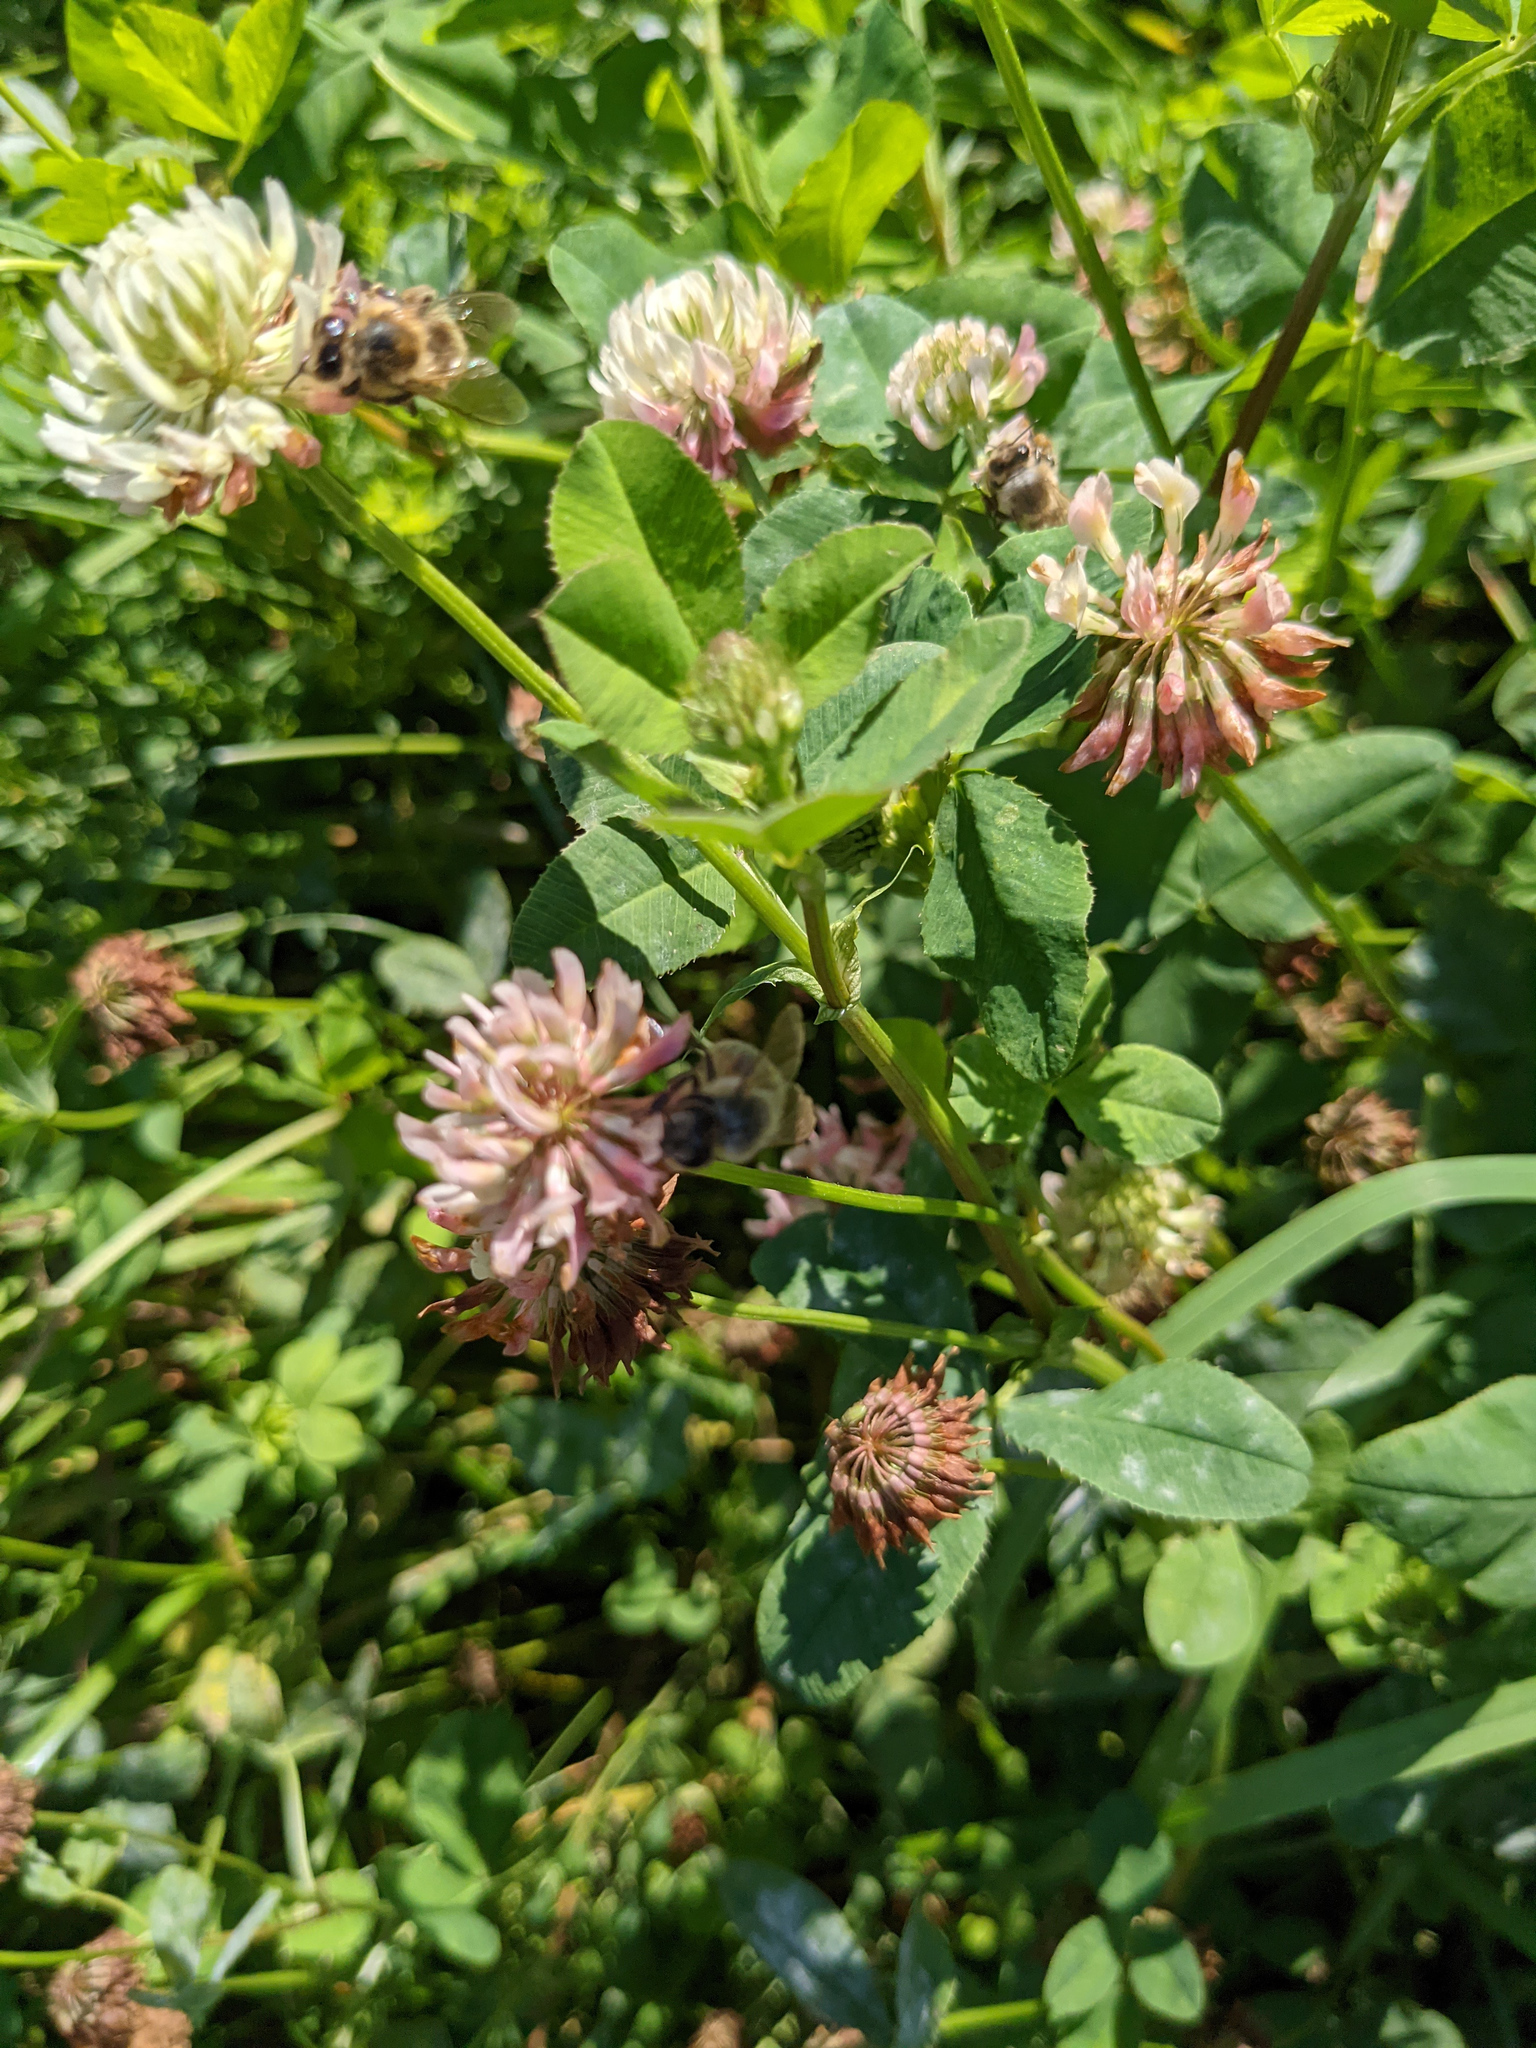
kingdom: Animalia
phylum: Arthropoda
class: Insecta
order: Hymenoptera
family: Apidae
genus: Apis
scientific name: Apis mellifera
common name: Honey bee
